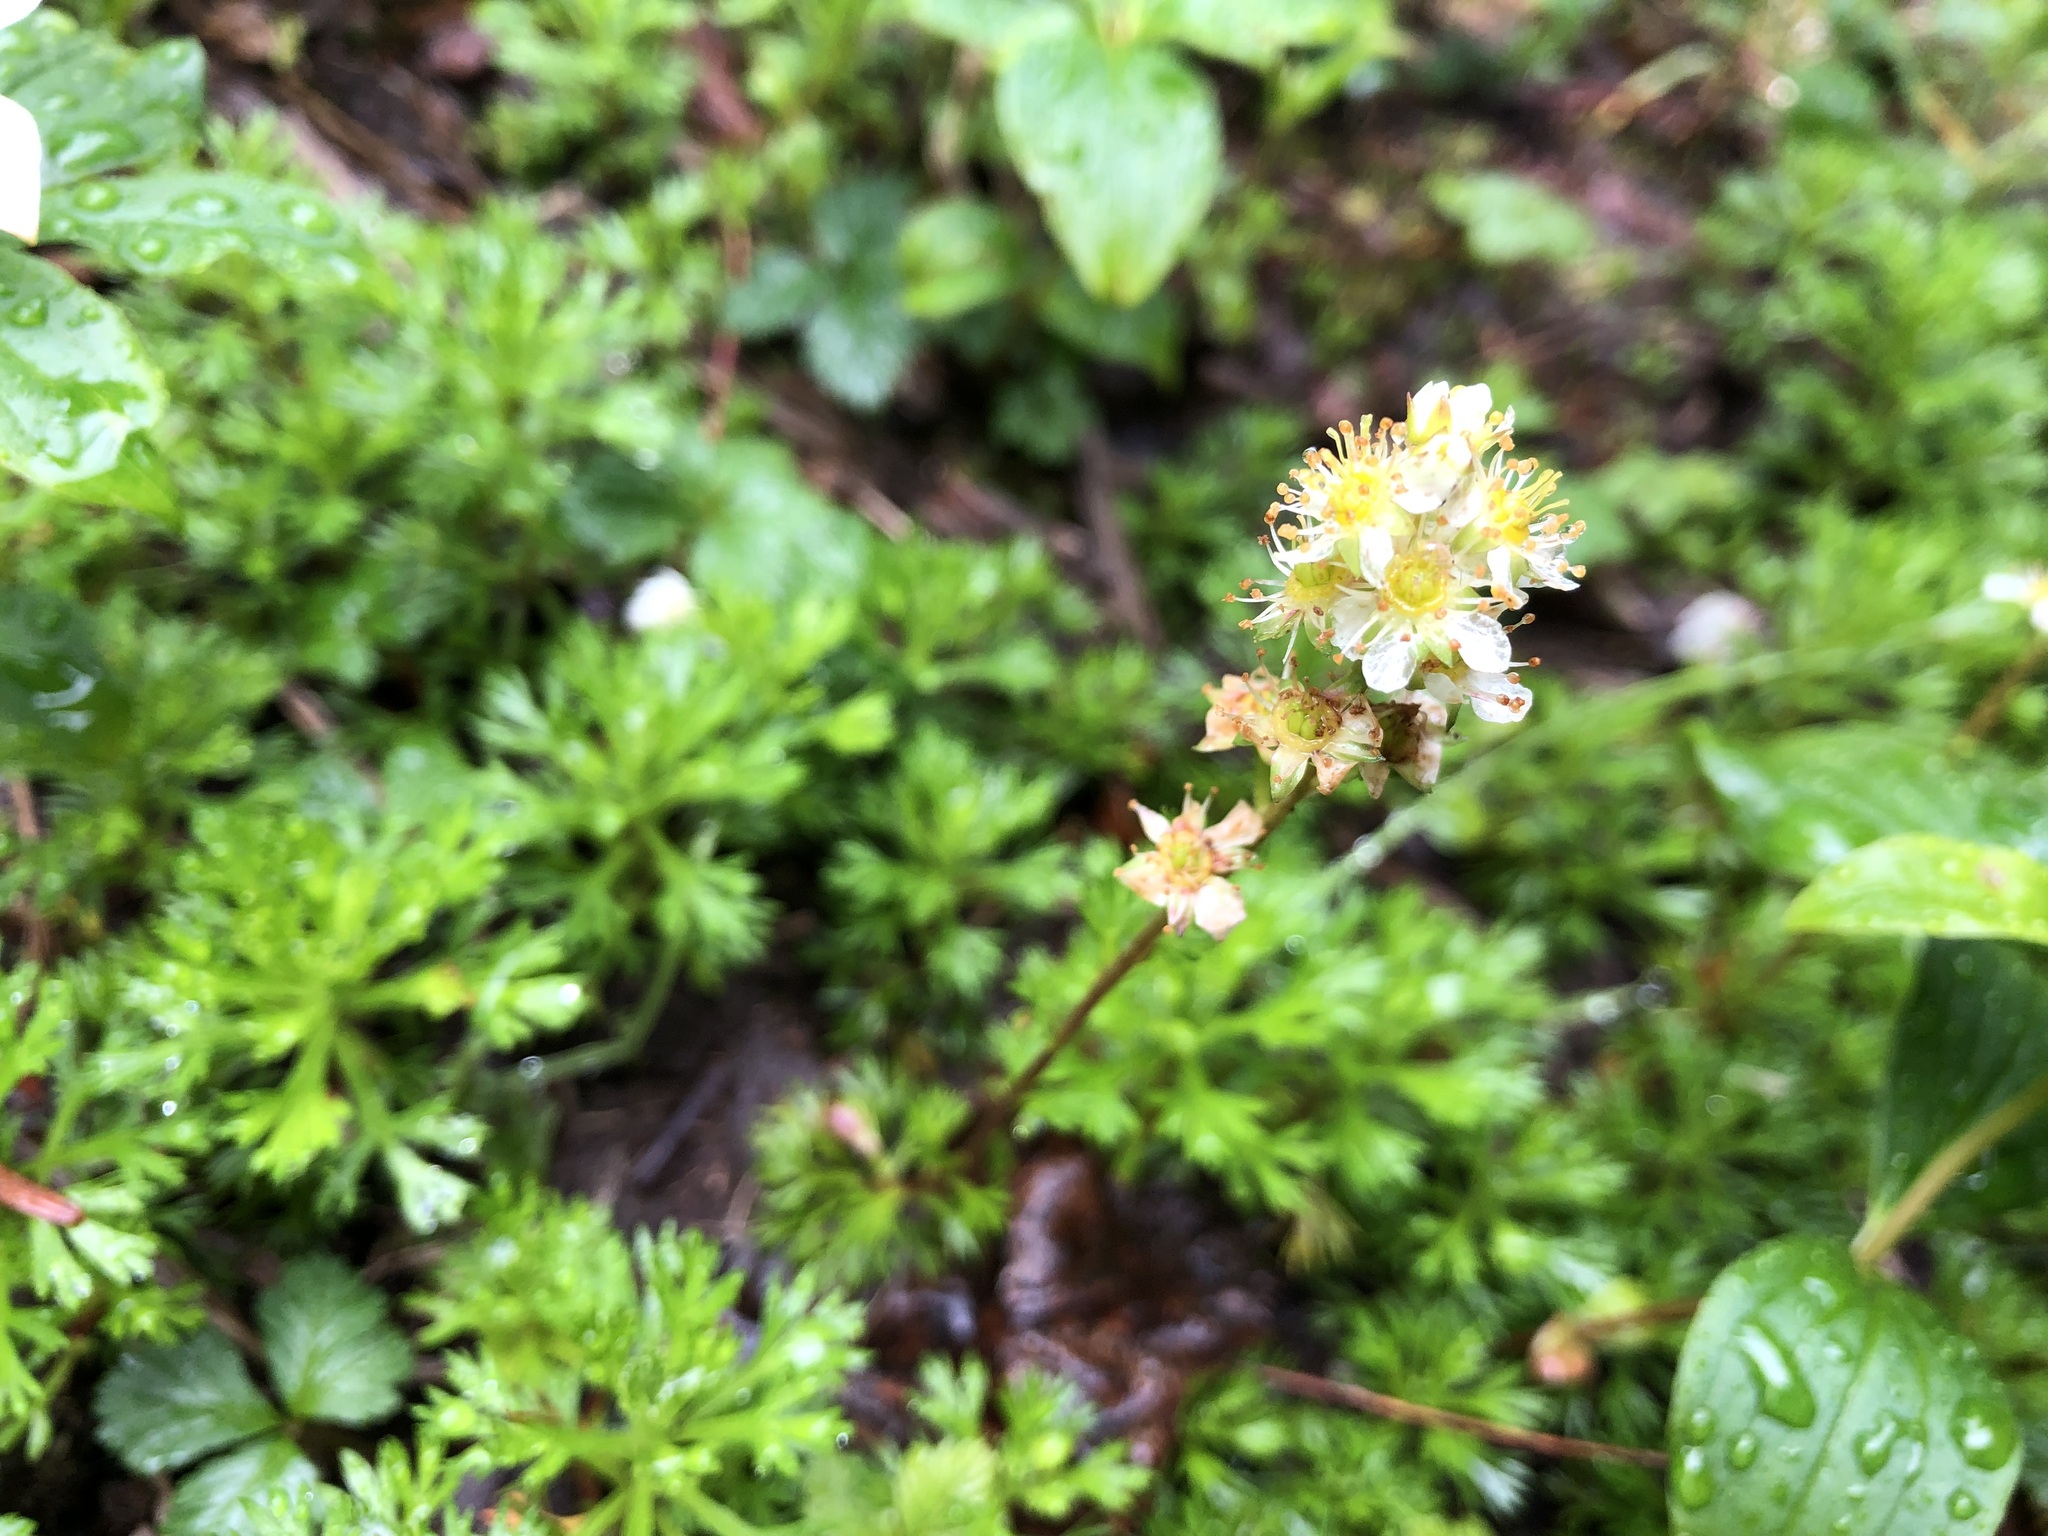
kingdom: Plantae
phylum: Tracheophyta
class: Magnoliopsida
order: Rosales
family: Rosaceae
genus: Luetkea
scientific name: Luetkea pectinata
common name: Partridgefoot
